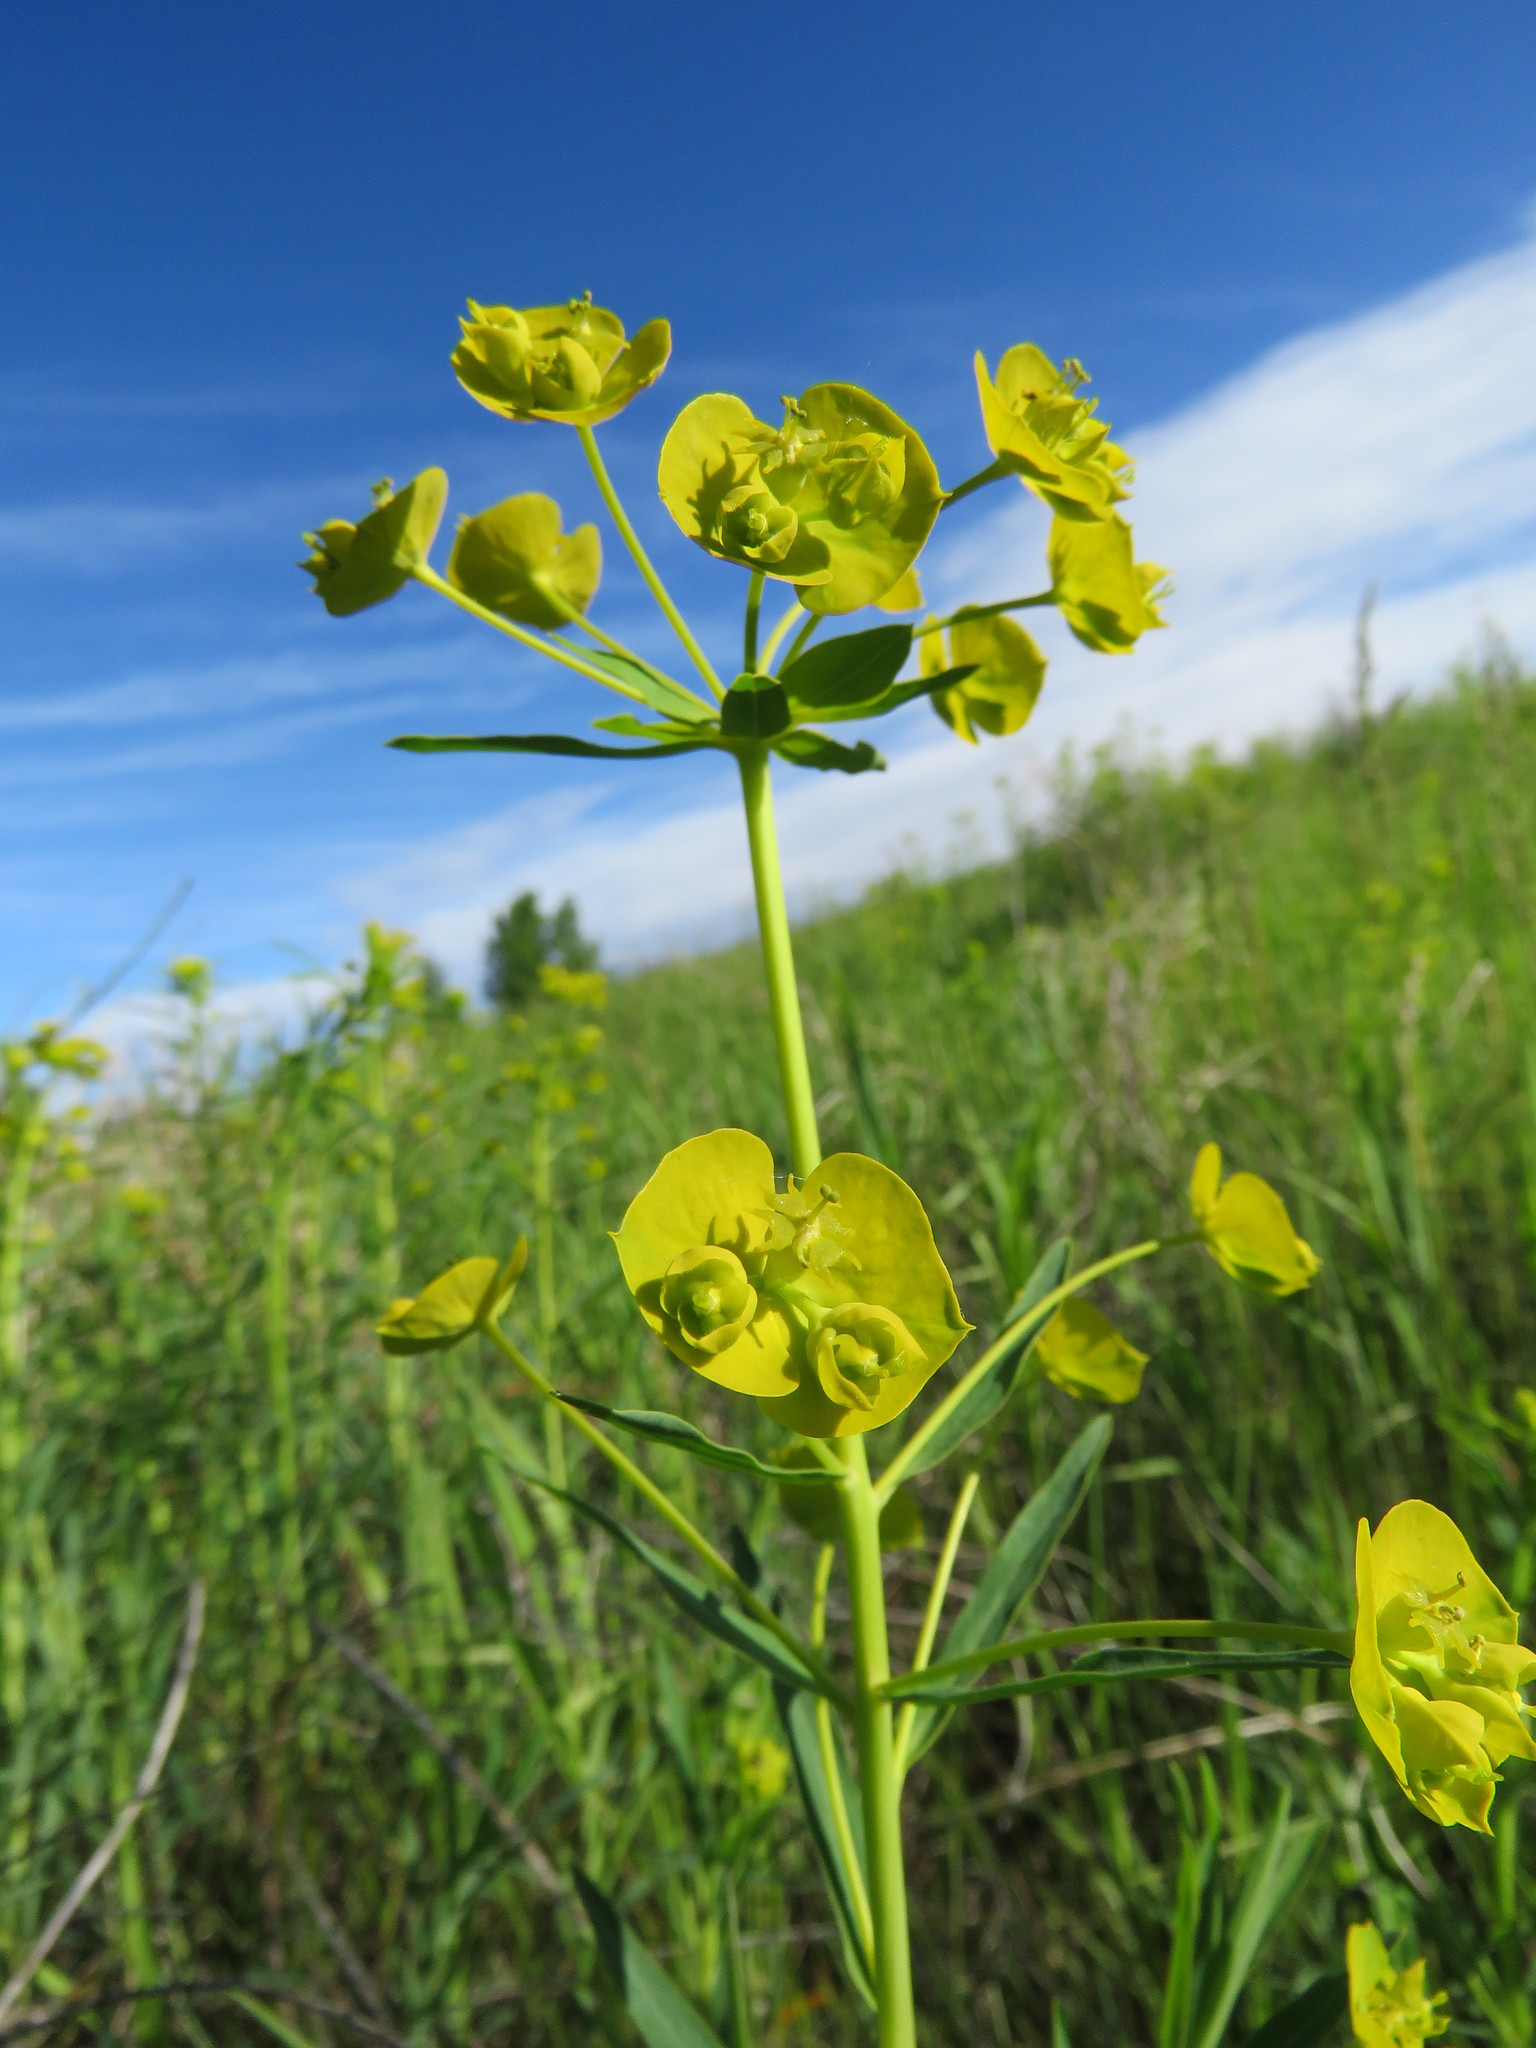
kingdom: Plantae
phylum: Tracheophyta
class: Magnoliopsida
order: Malpighiales
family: Euphorbiaceae
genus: Euphorbia
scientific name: Euphorbia virgata
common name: Leafy spurge
